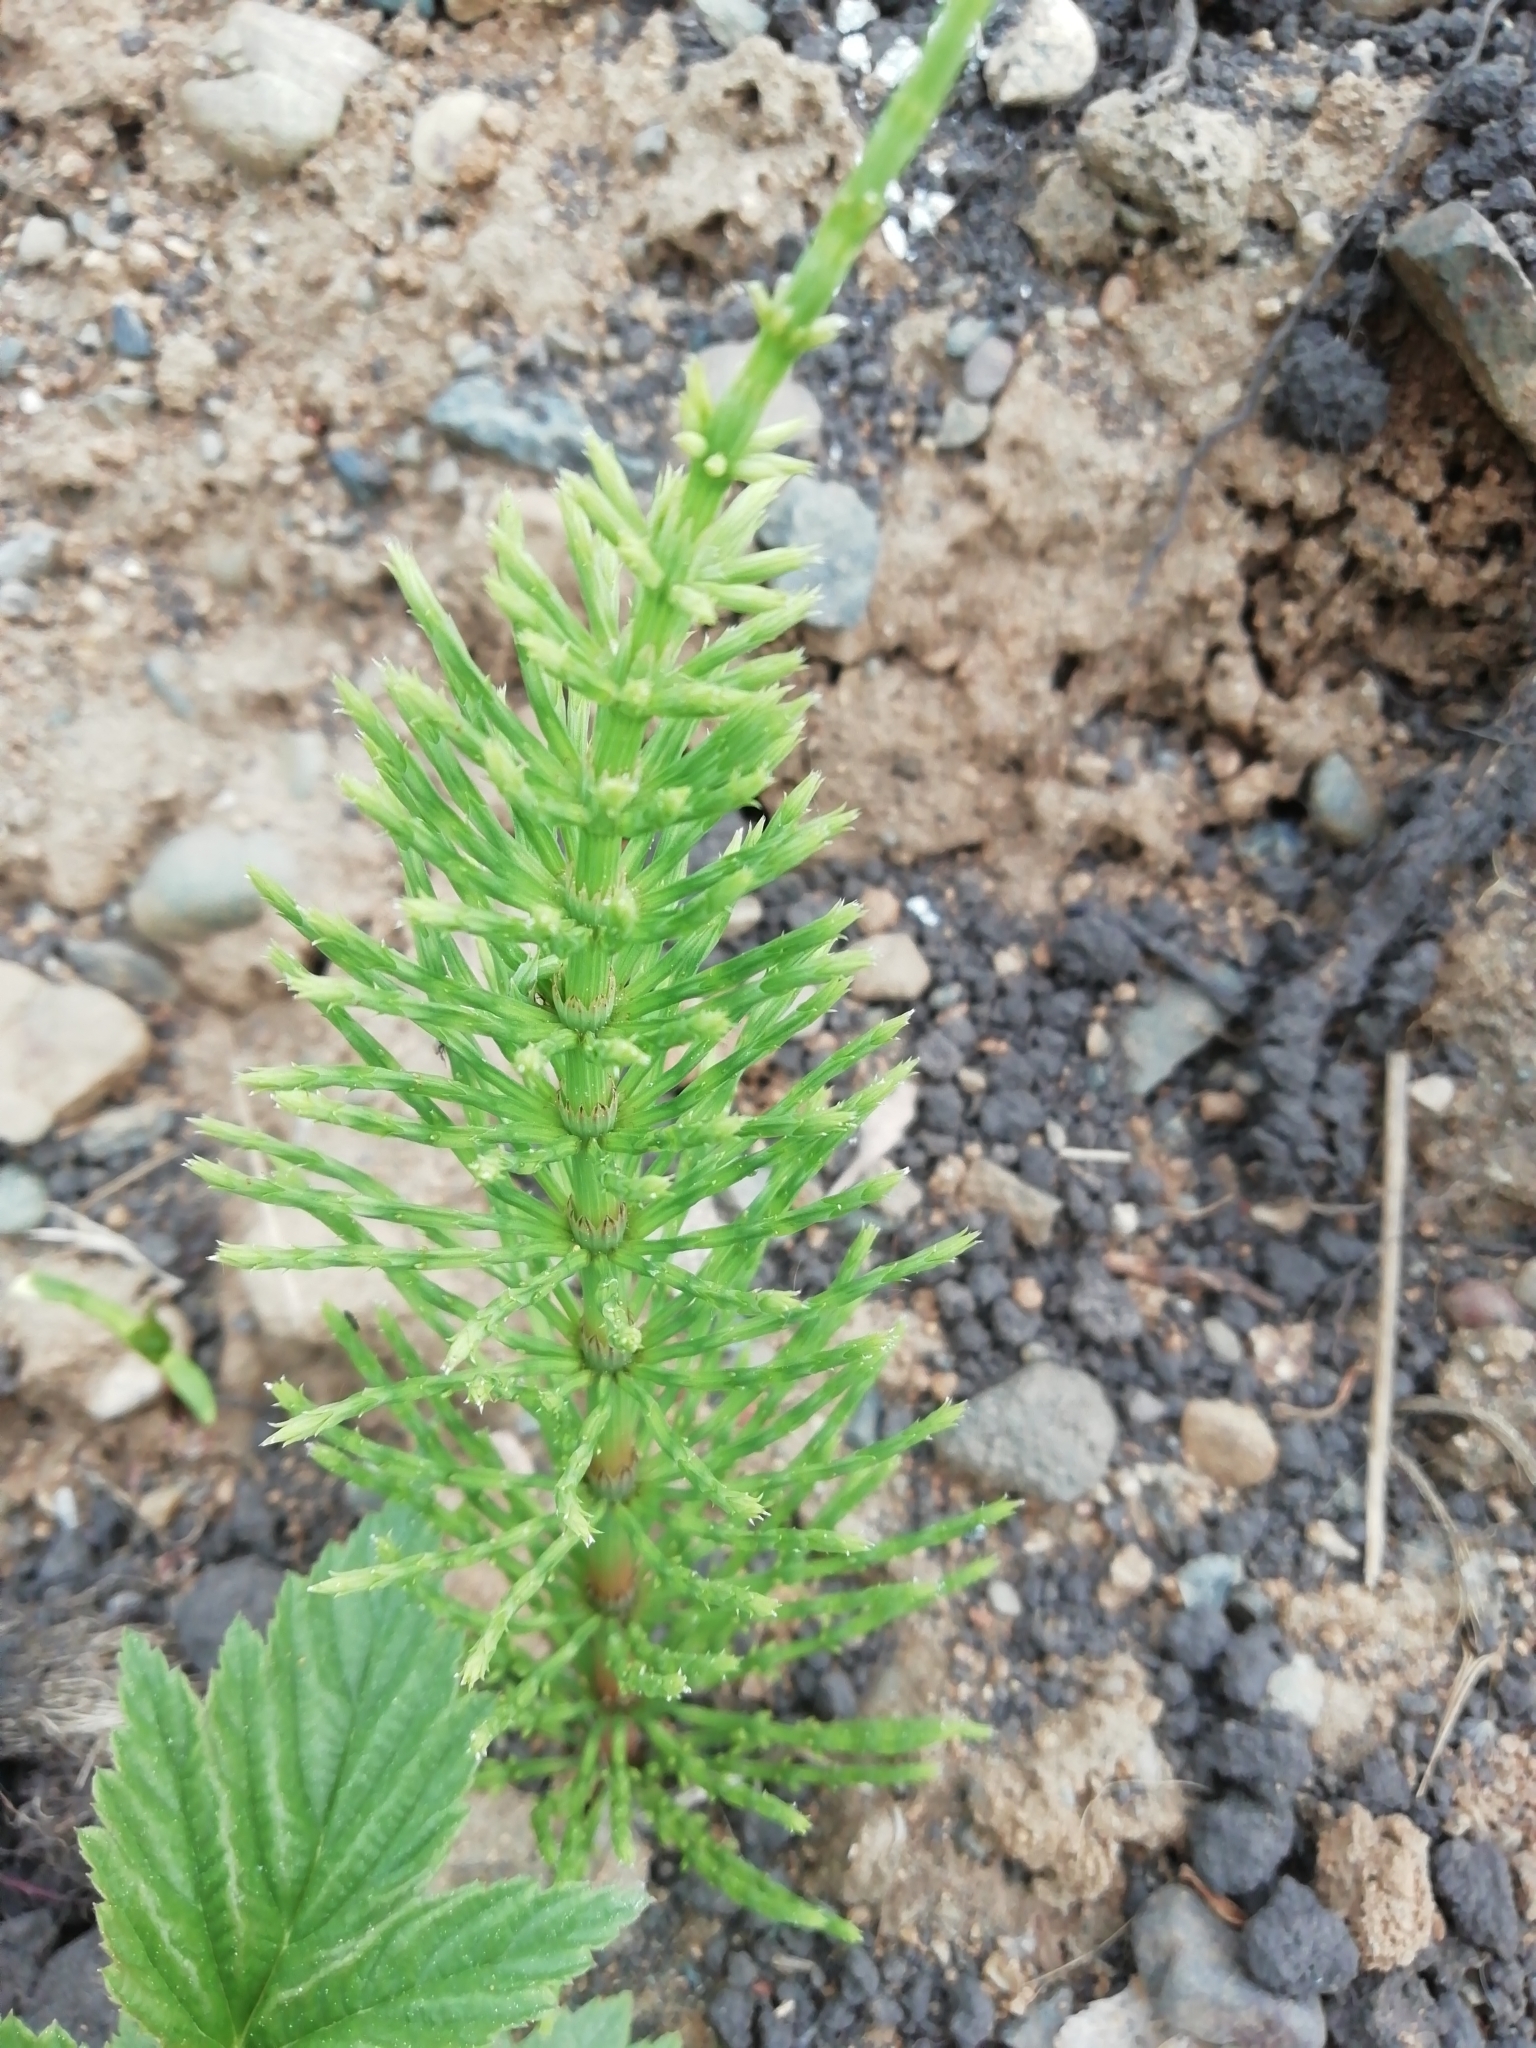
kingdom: Plantae
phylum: Tracheophyta
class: Polypodiopsida
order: Equisetales
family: Equisetaceae
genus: Equisetum
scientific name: Equisetum arvense
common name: Field horsetail
